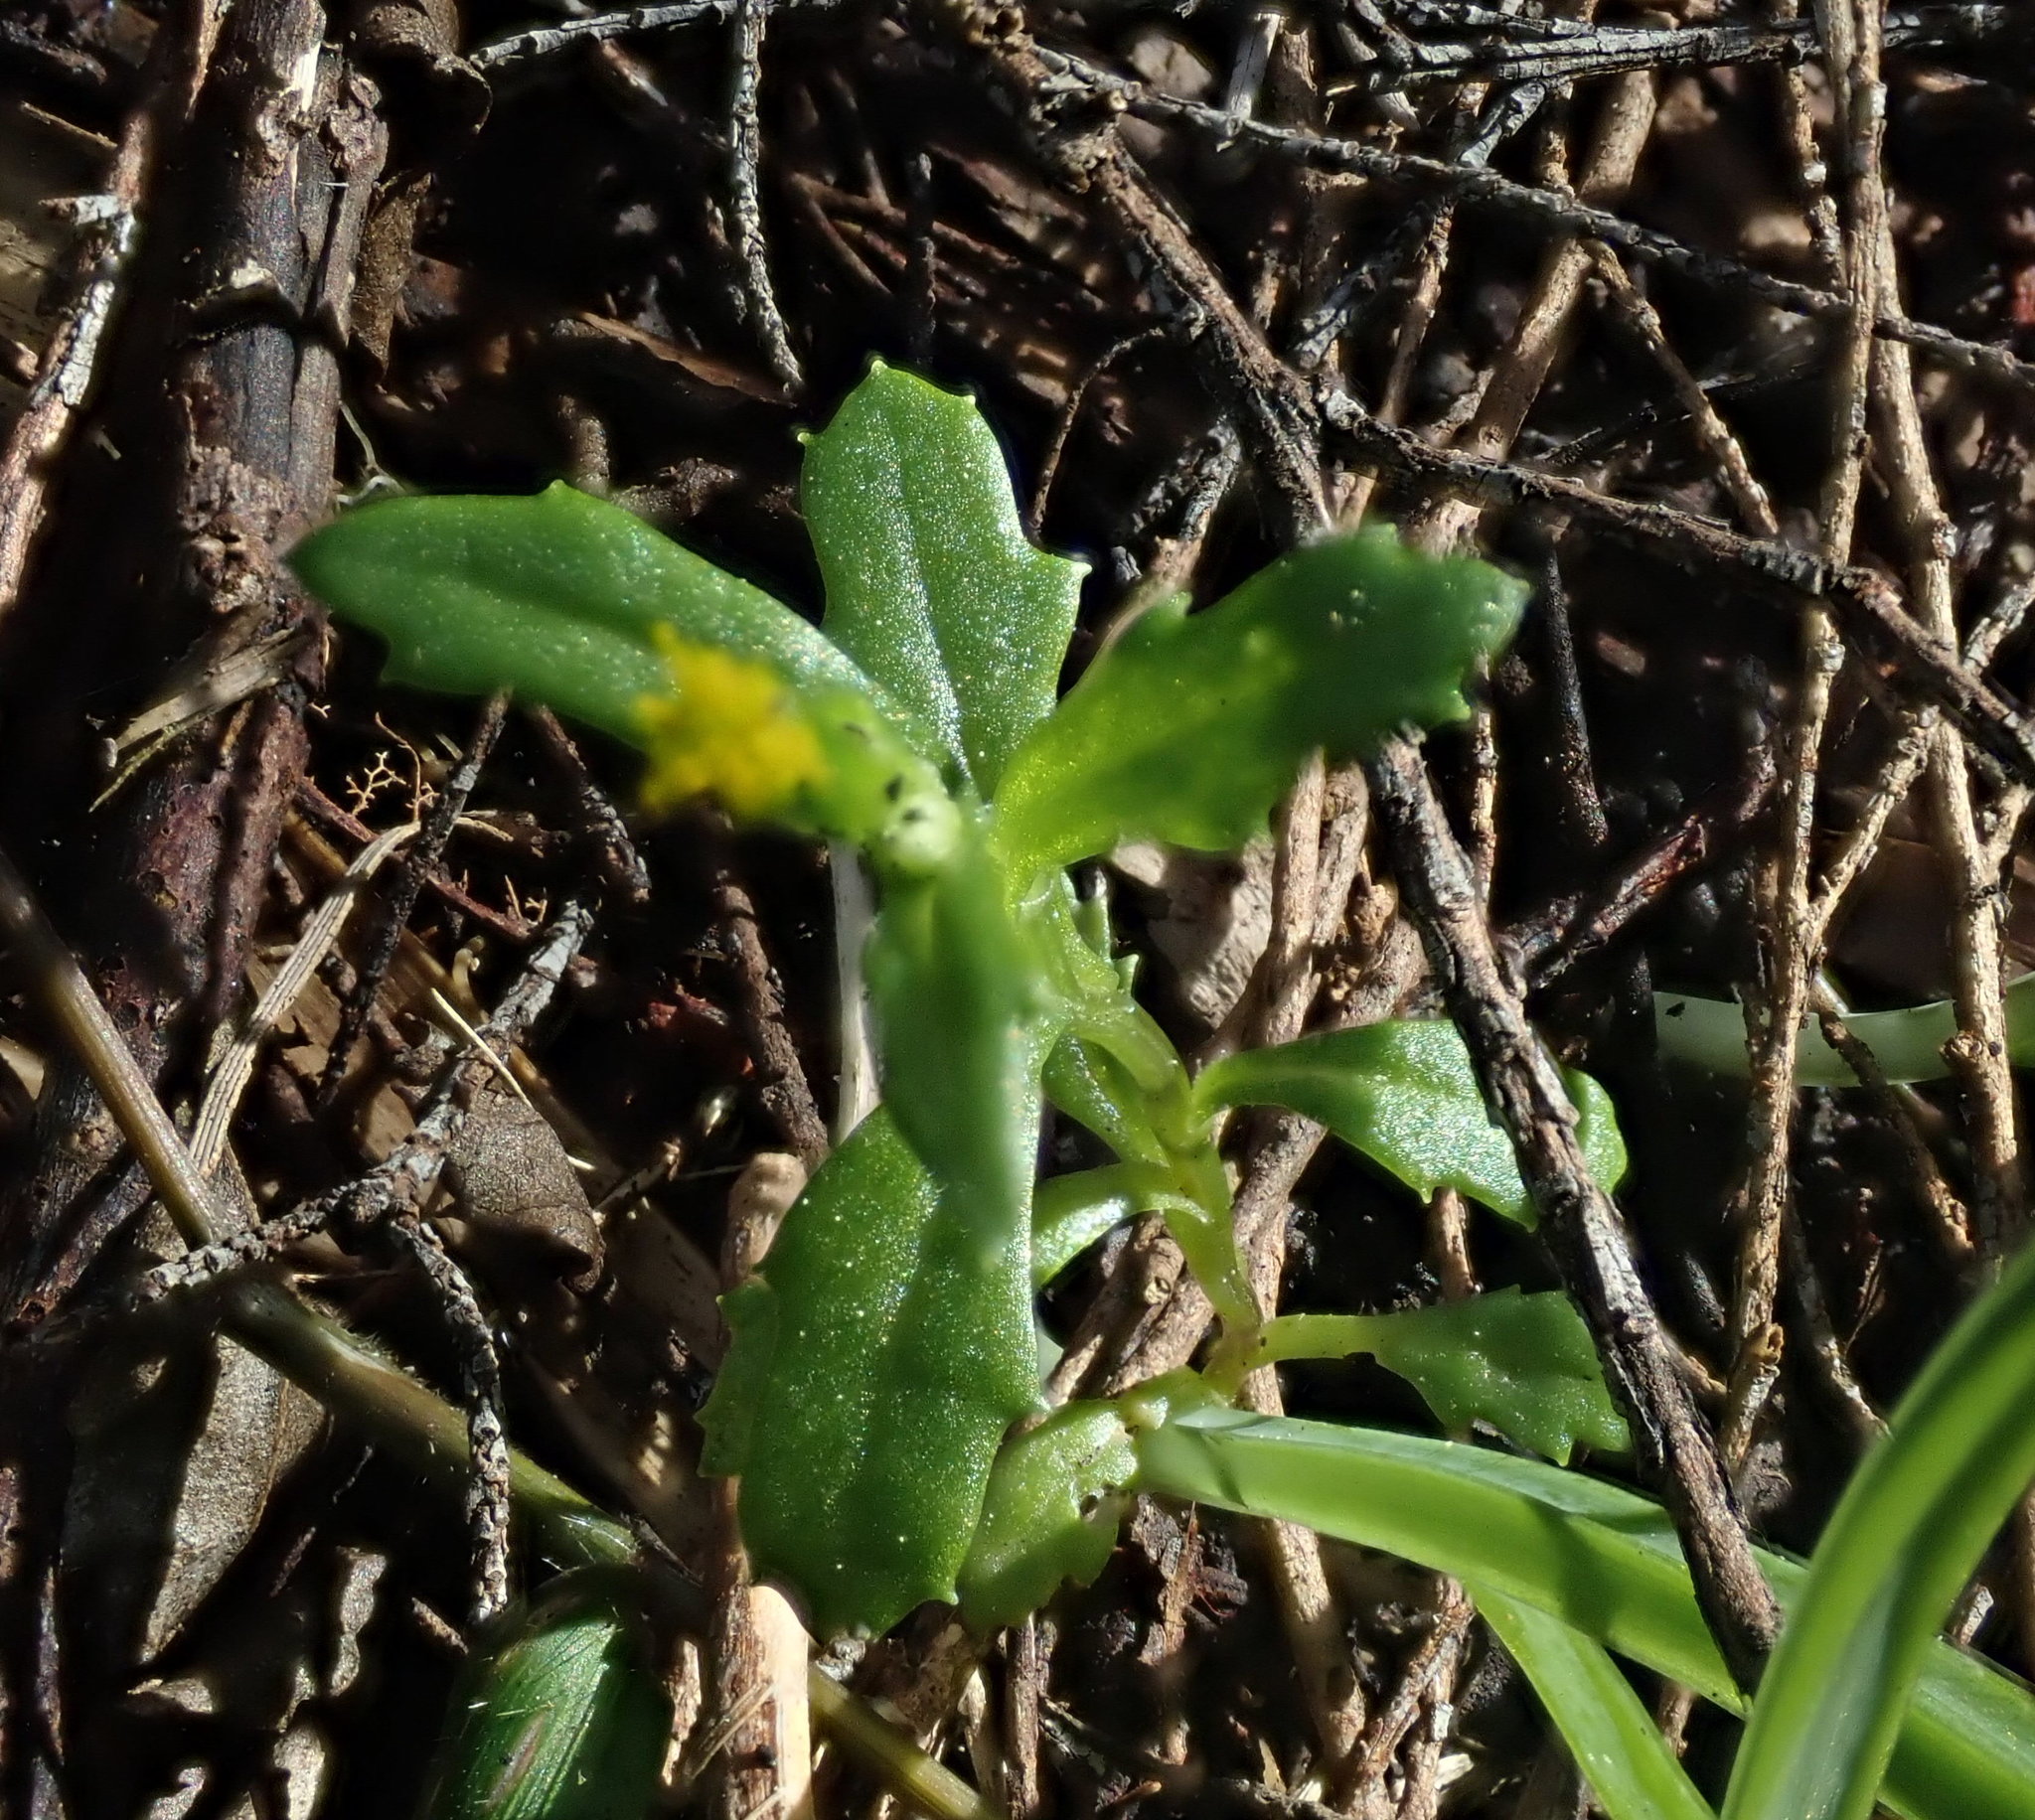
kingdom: Plantae
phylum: Tracheophyta
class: Magnoliopsida
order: Asterales
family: Asteraceae
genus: Senecio
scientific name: Senecio vulgaris
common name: Old-man-in-the-spring
